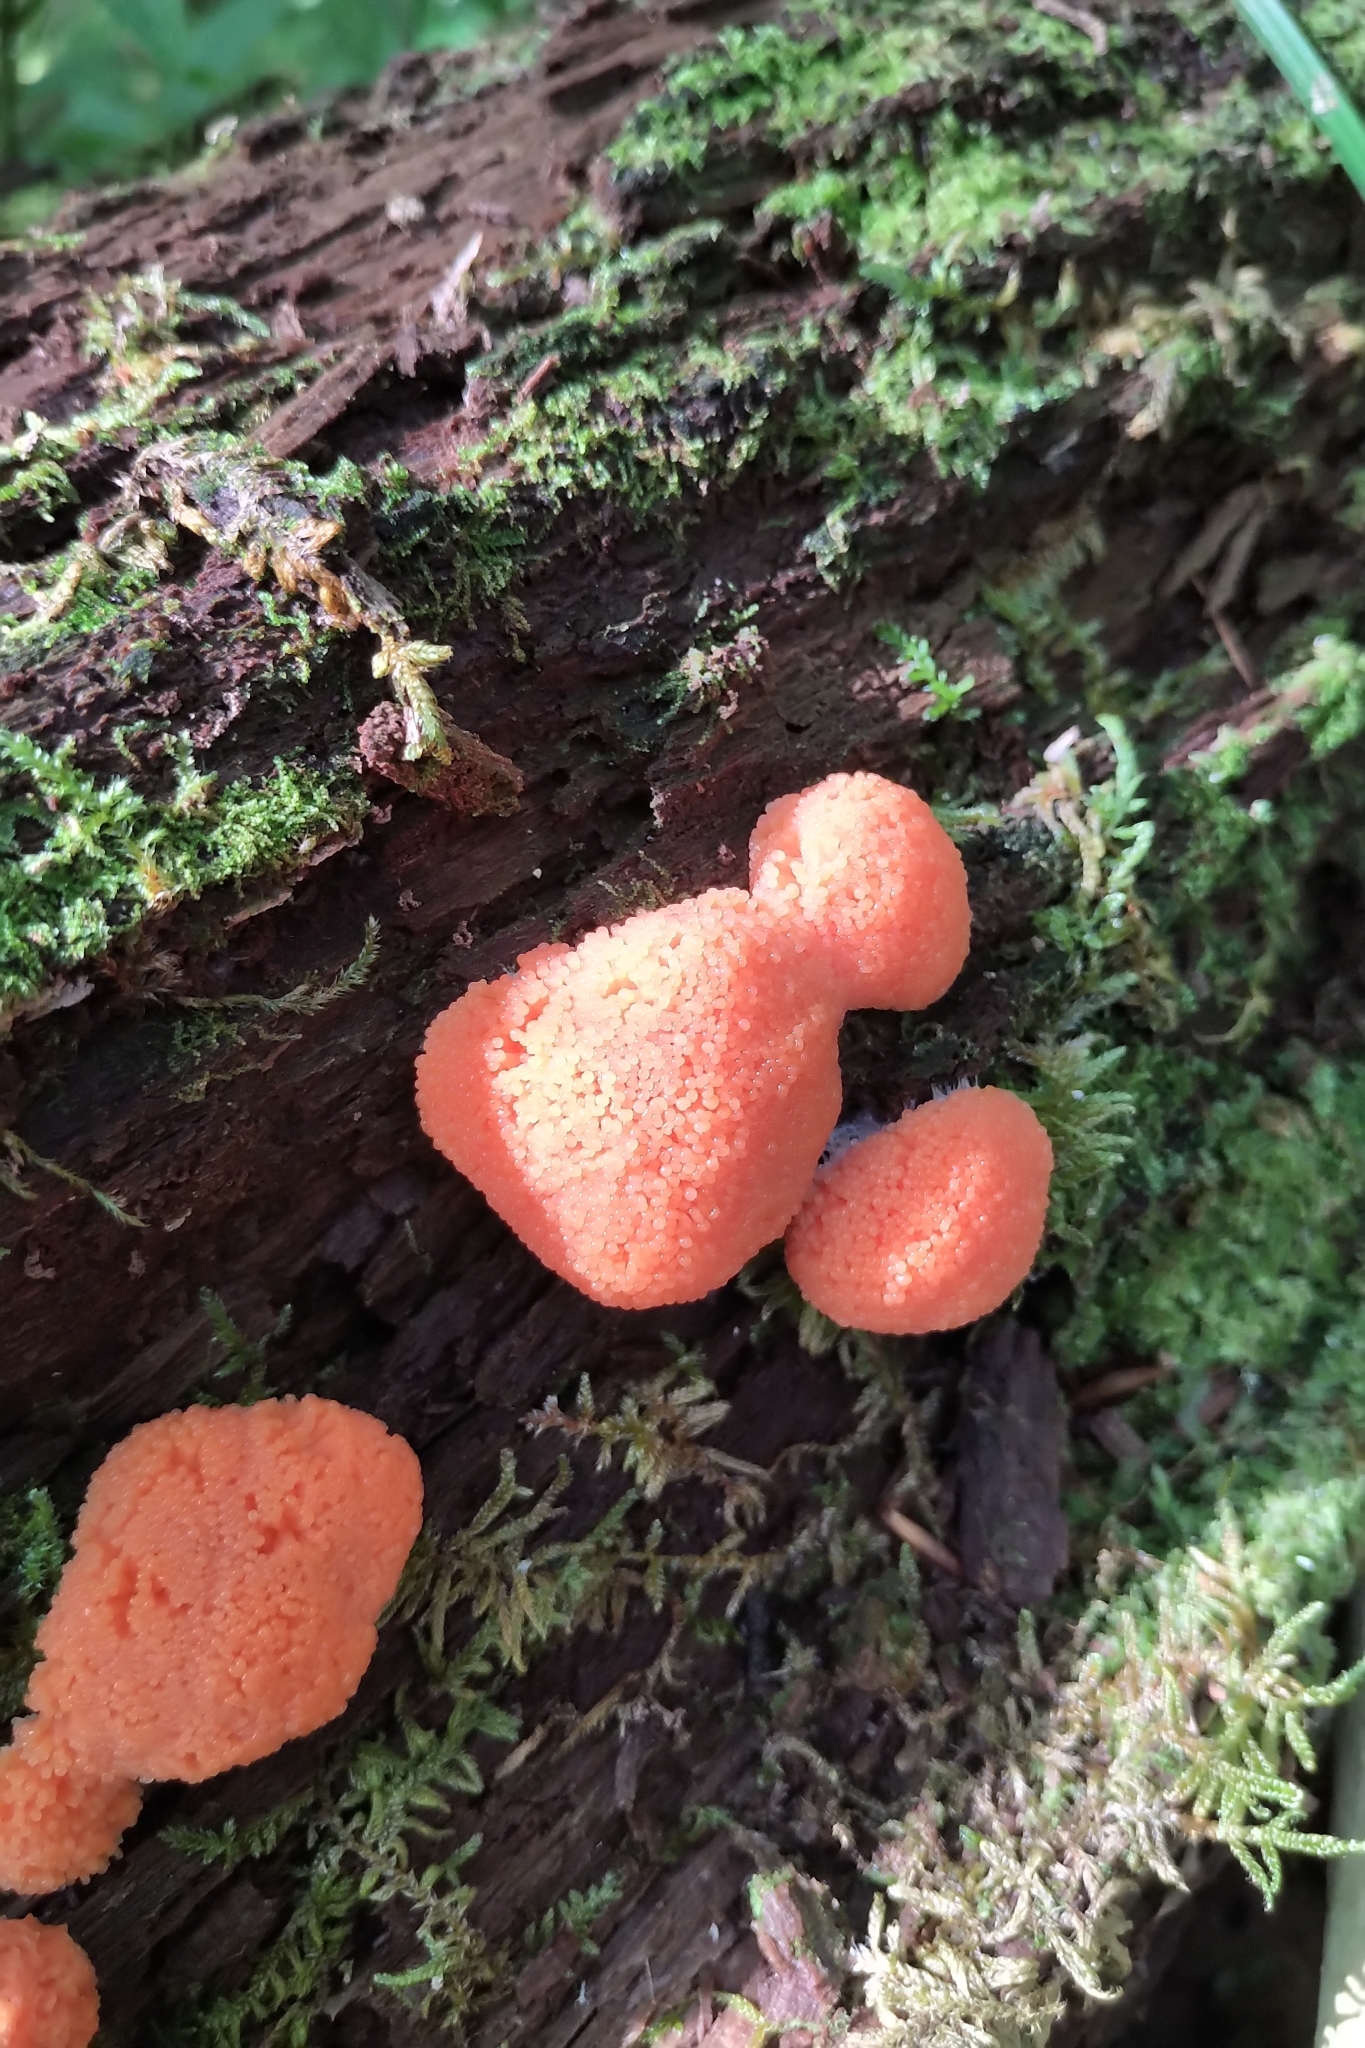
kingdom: Protozoa
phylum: Mycetozoa
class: Myxomycetes
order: Cribrariales
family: Tubiferaceae
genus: Tubifera
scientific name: Tubifera ferruginosa
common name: Red raspberry slime mold
